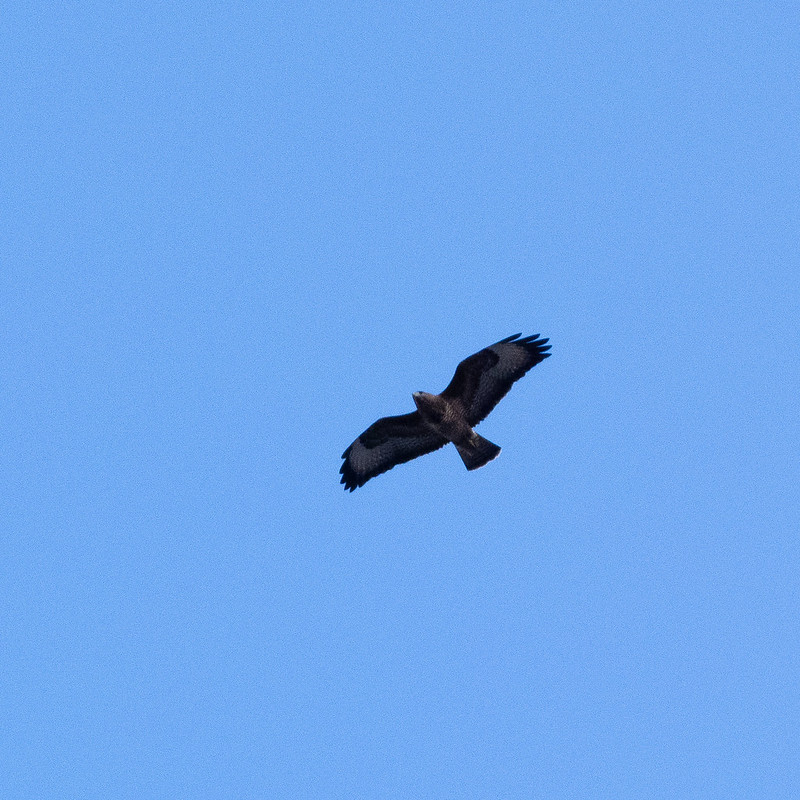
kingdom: Animalia
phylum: Chordata
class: Aves
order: Accipitriformes
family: Accipitridae
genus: Buteo
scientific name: Buteo buteo
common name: Common buzzard
